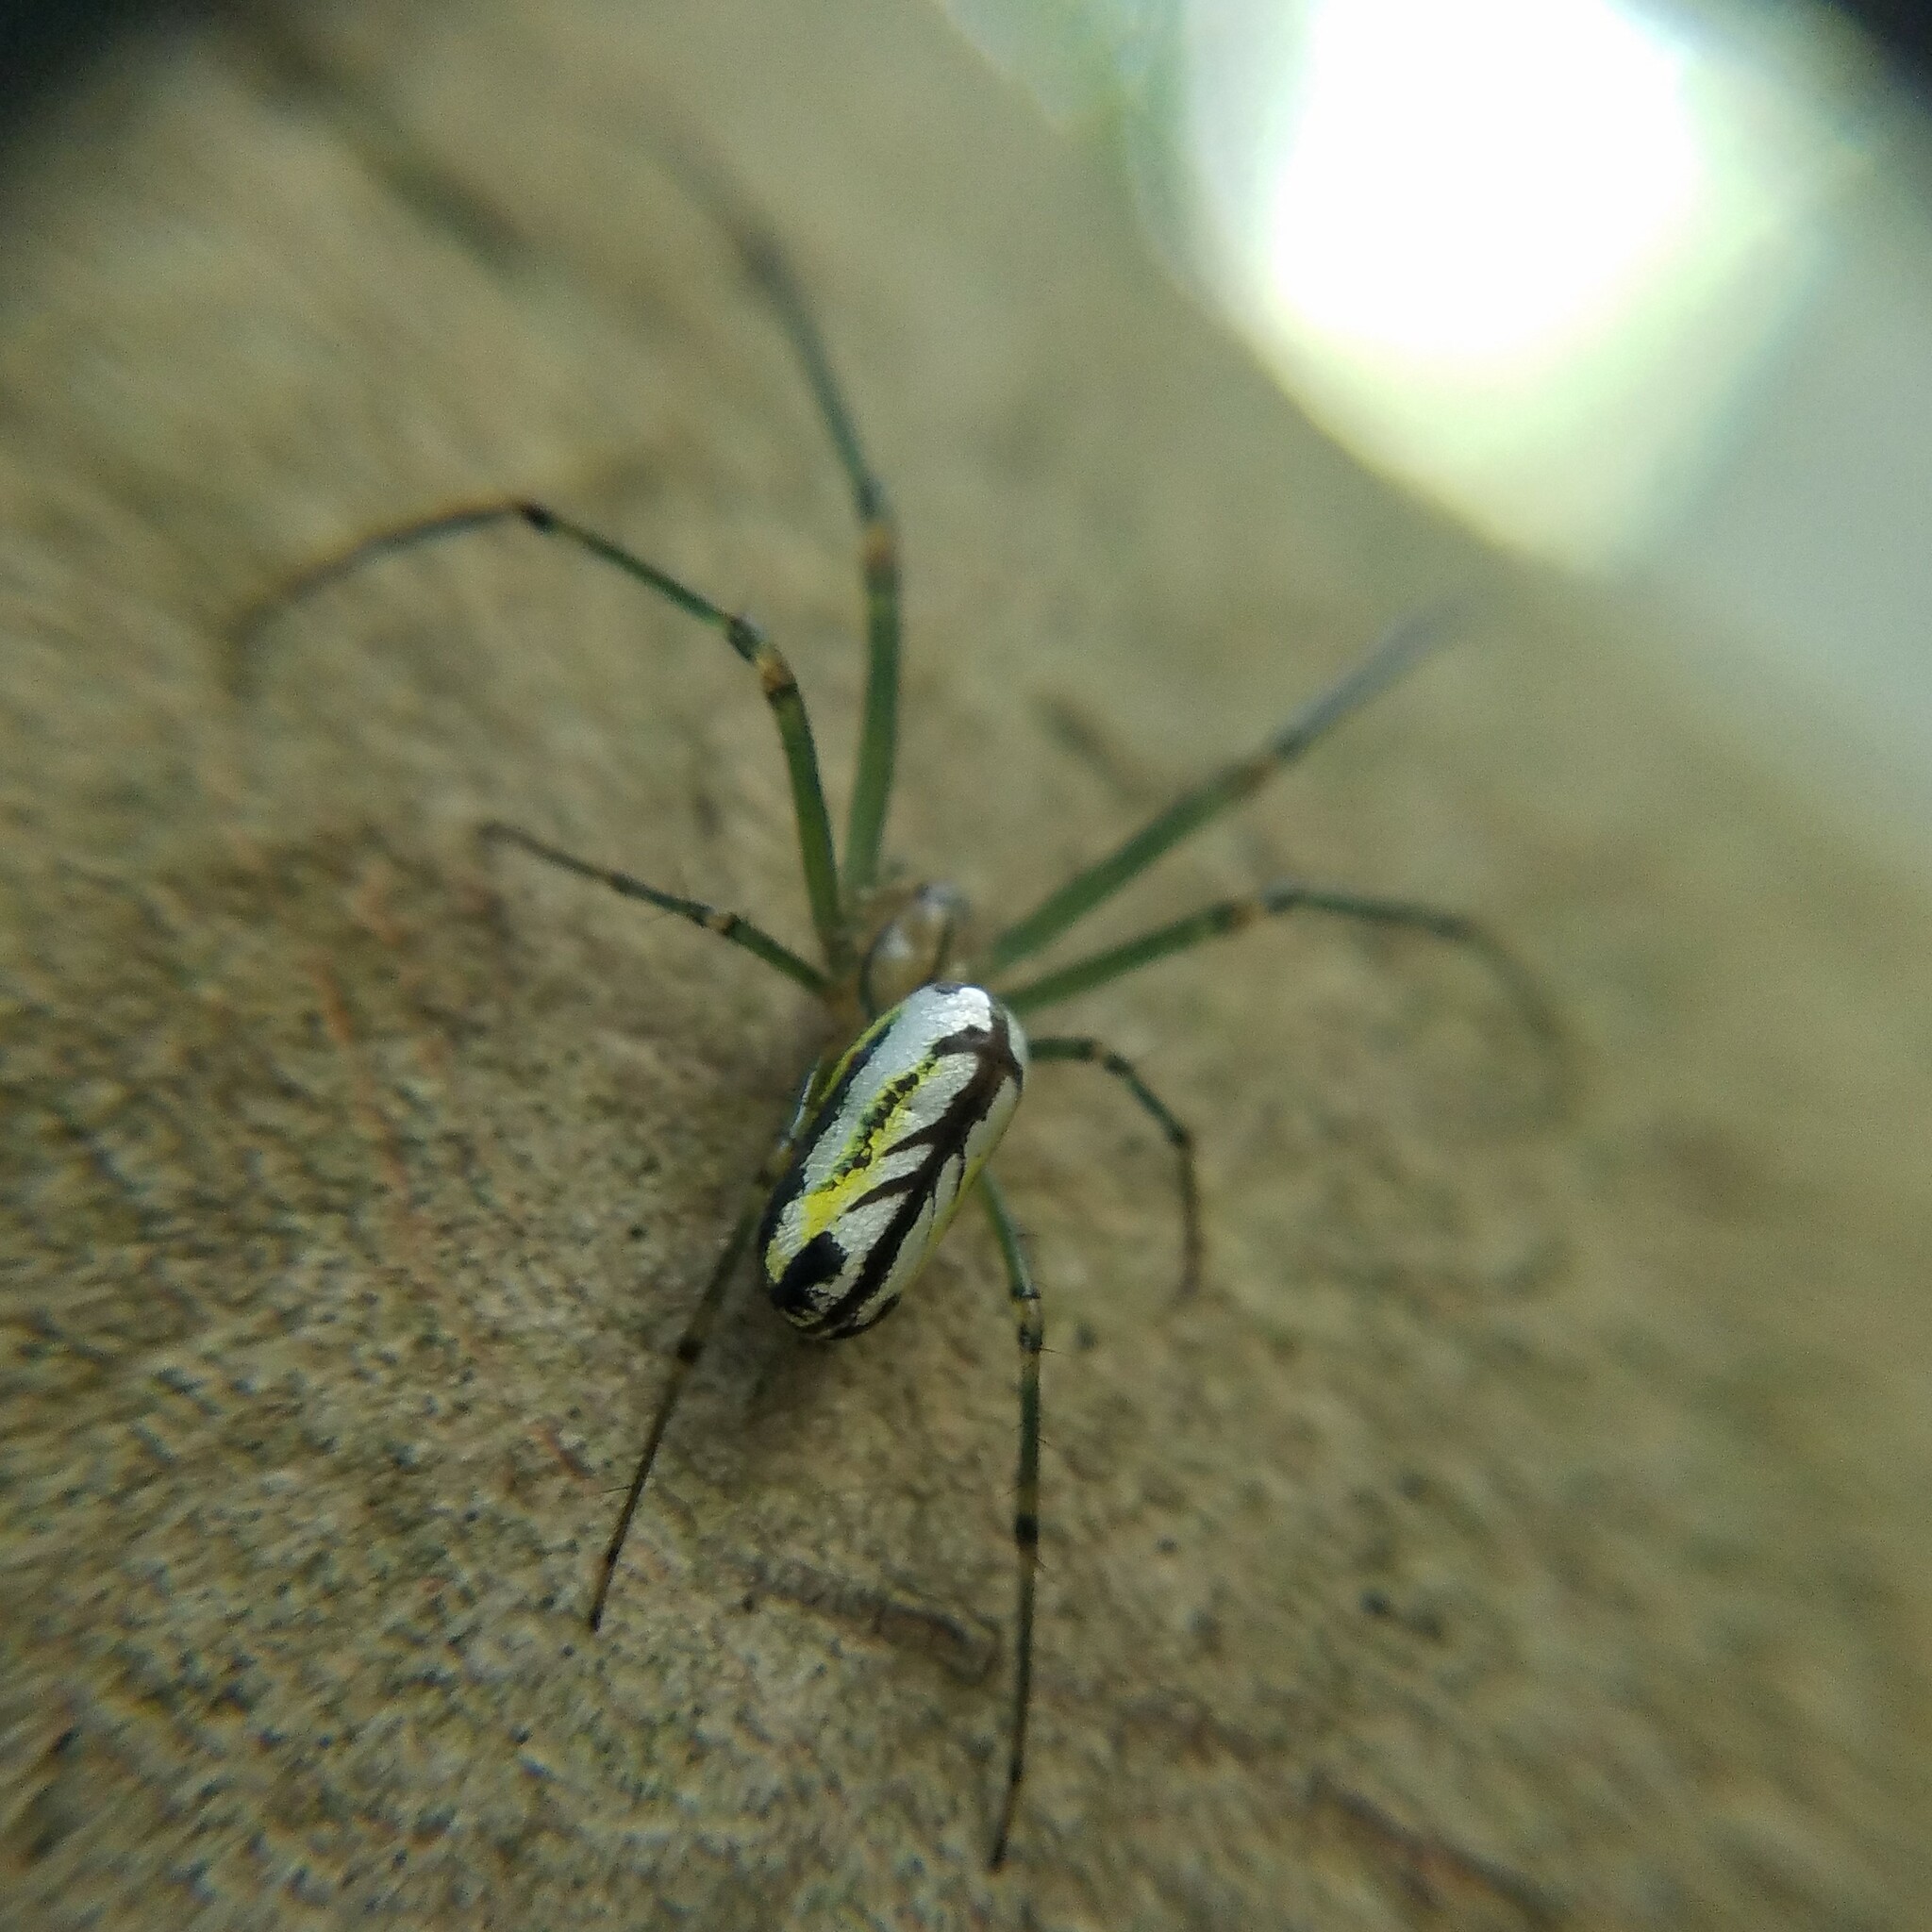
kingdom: Animalia
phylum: Arthropoda
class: Arachnida
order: Araneae
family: Tetragnathidae
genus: Leucauge
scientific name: Leucauge venusta
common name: Longjawed orb weavers
